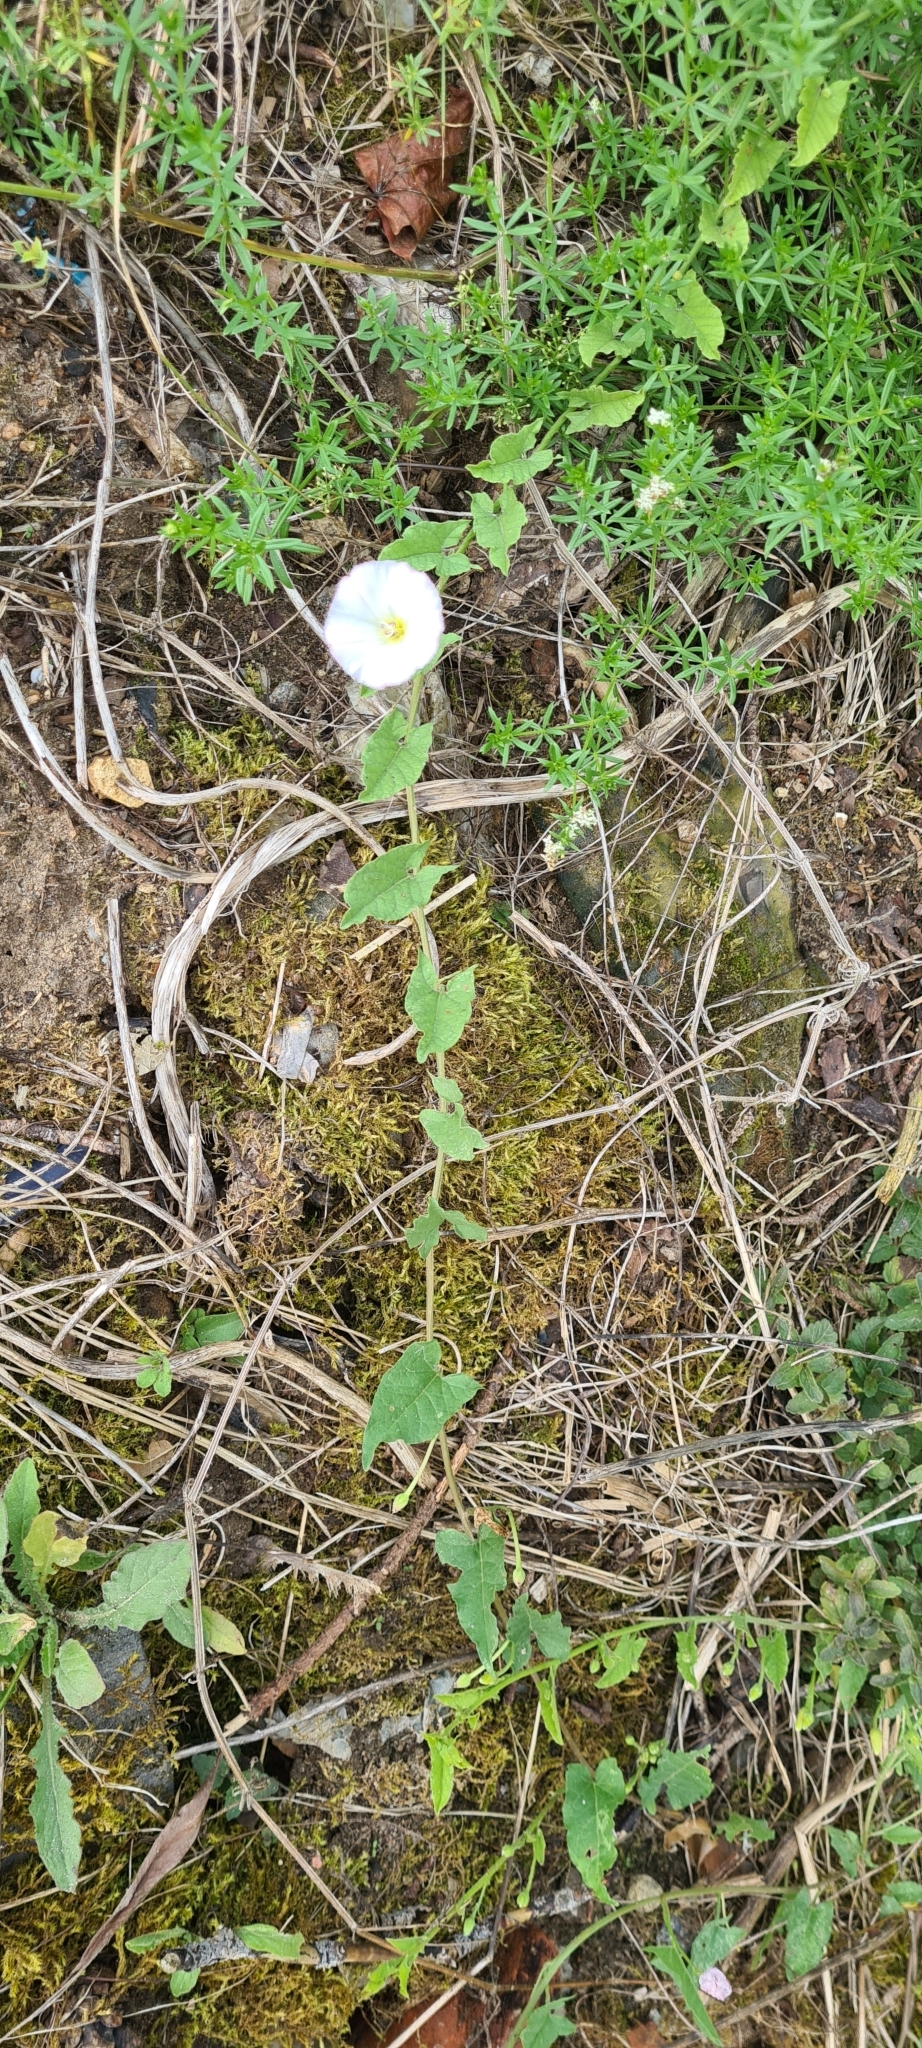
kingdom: Plantae
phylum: Tracheophyta
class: Magnoliopsida
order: Solanales
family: Convolvulaceae
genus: Convolvulus
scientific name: Convolvulus arvensis
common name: Field bindweed
